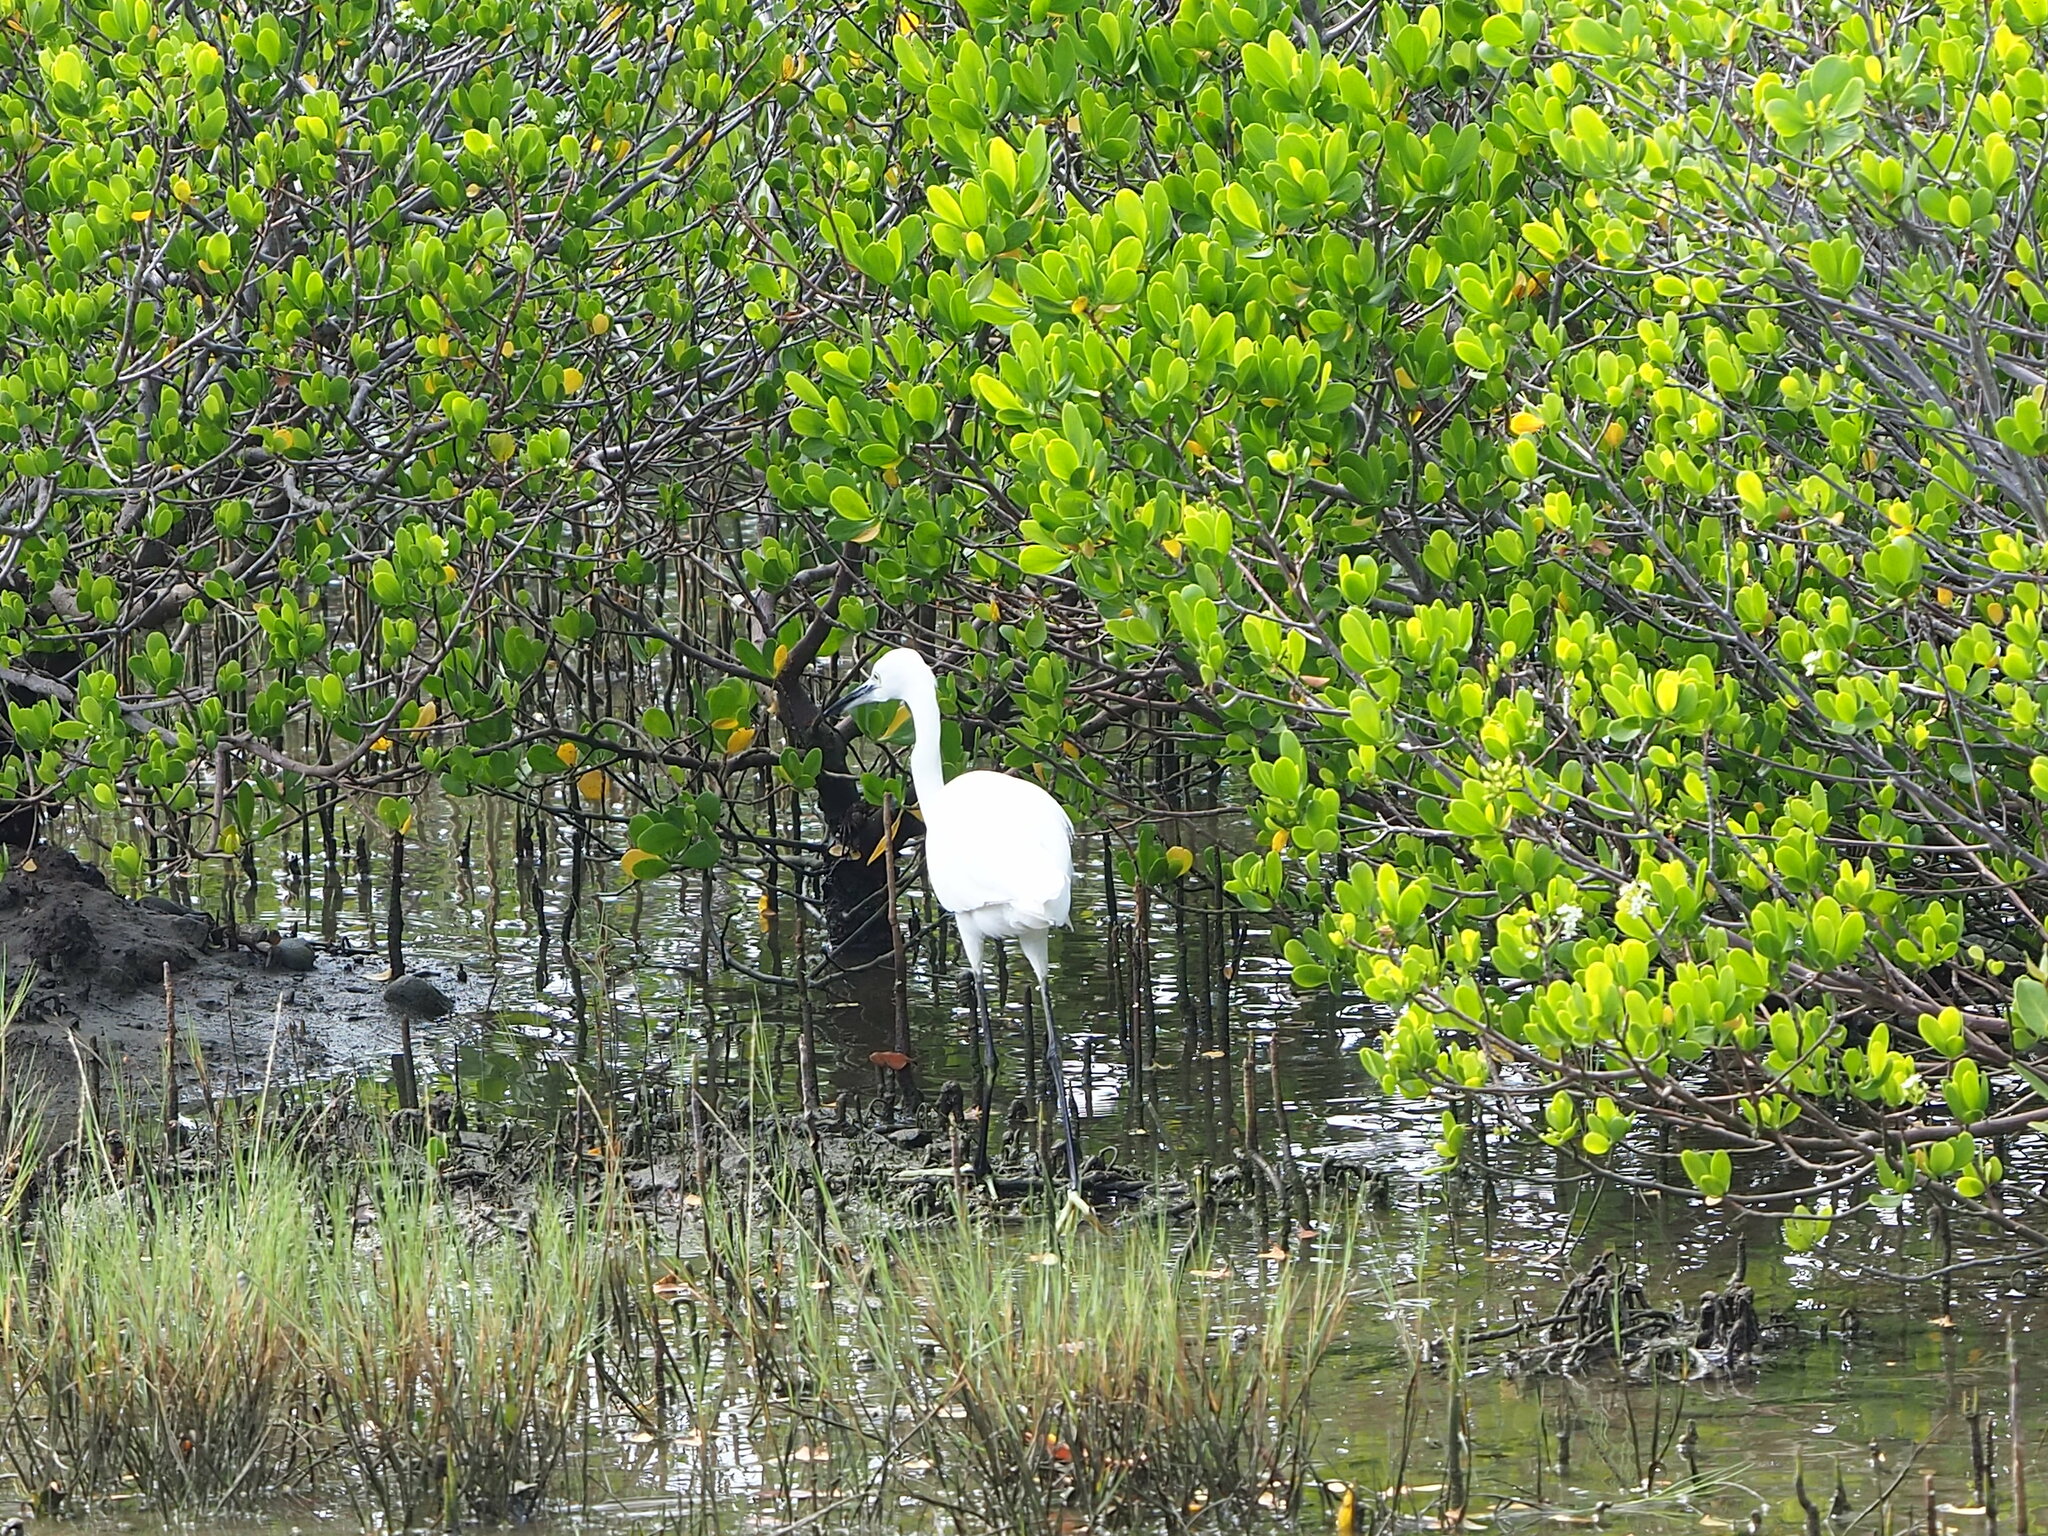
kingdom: Animalia
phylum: Chordata
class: Aves
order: Pelecaniformes
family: Ardeidae
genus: Egretta
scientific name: Egretta garzetta
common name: Little egret
